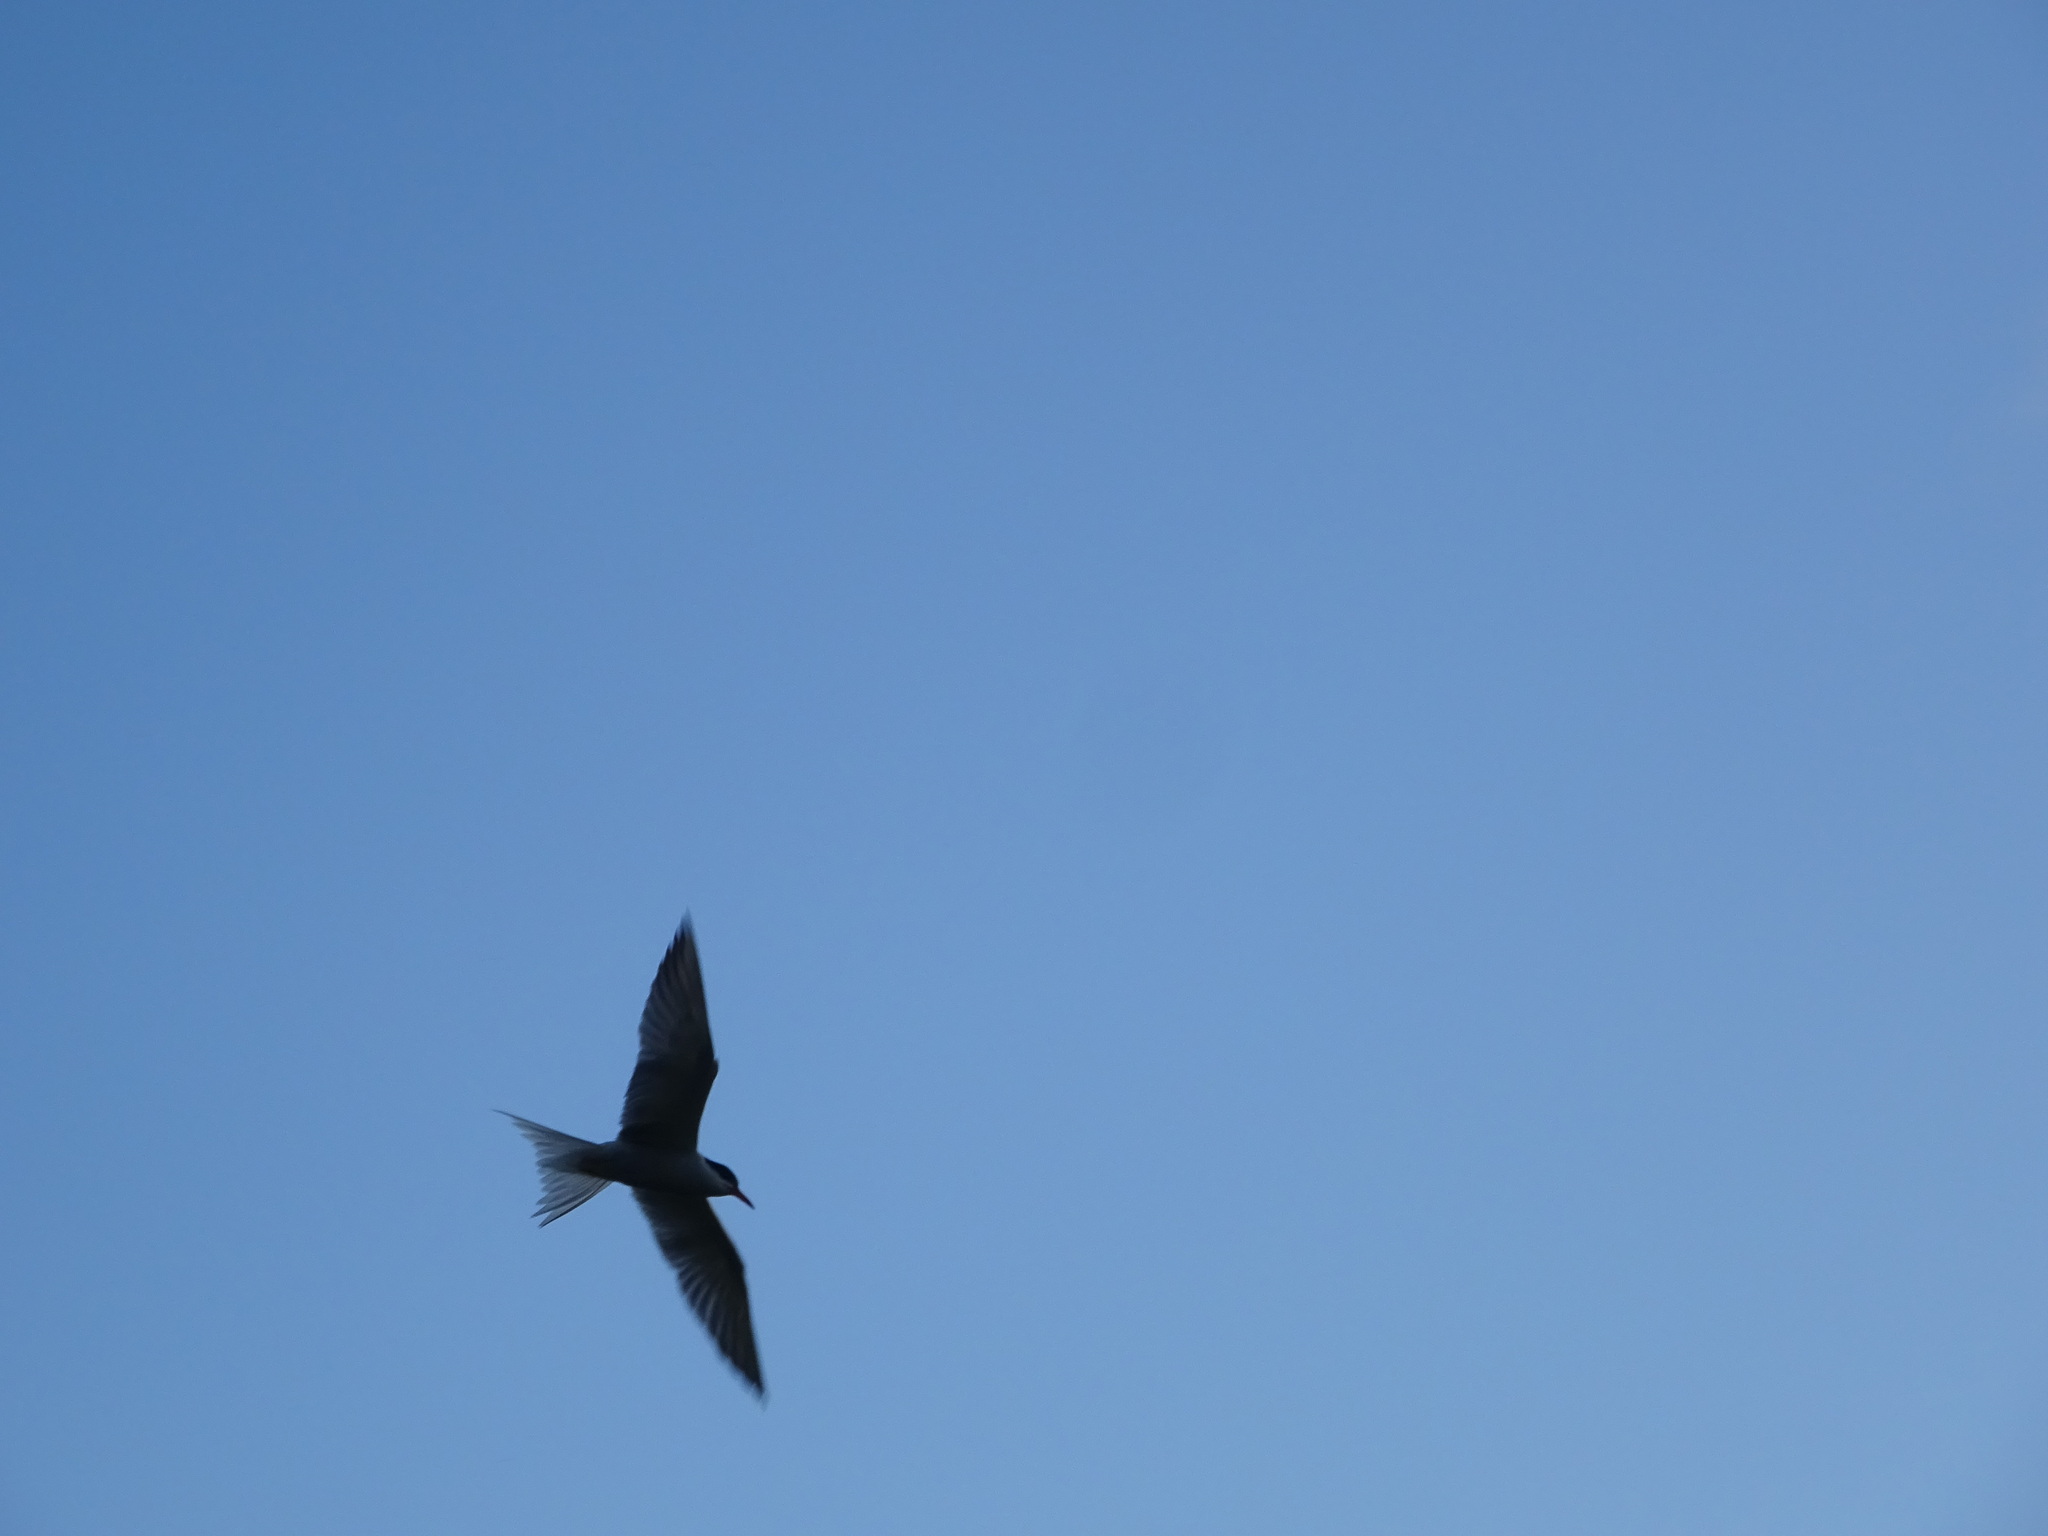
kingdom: Animalia
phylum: Chordata
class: Aves
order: Charadriiformes
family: Laridae
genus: Sterna
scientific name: Sterna hirundo
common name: Common tern
